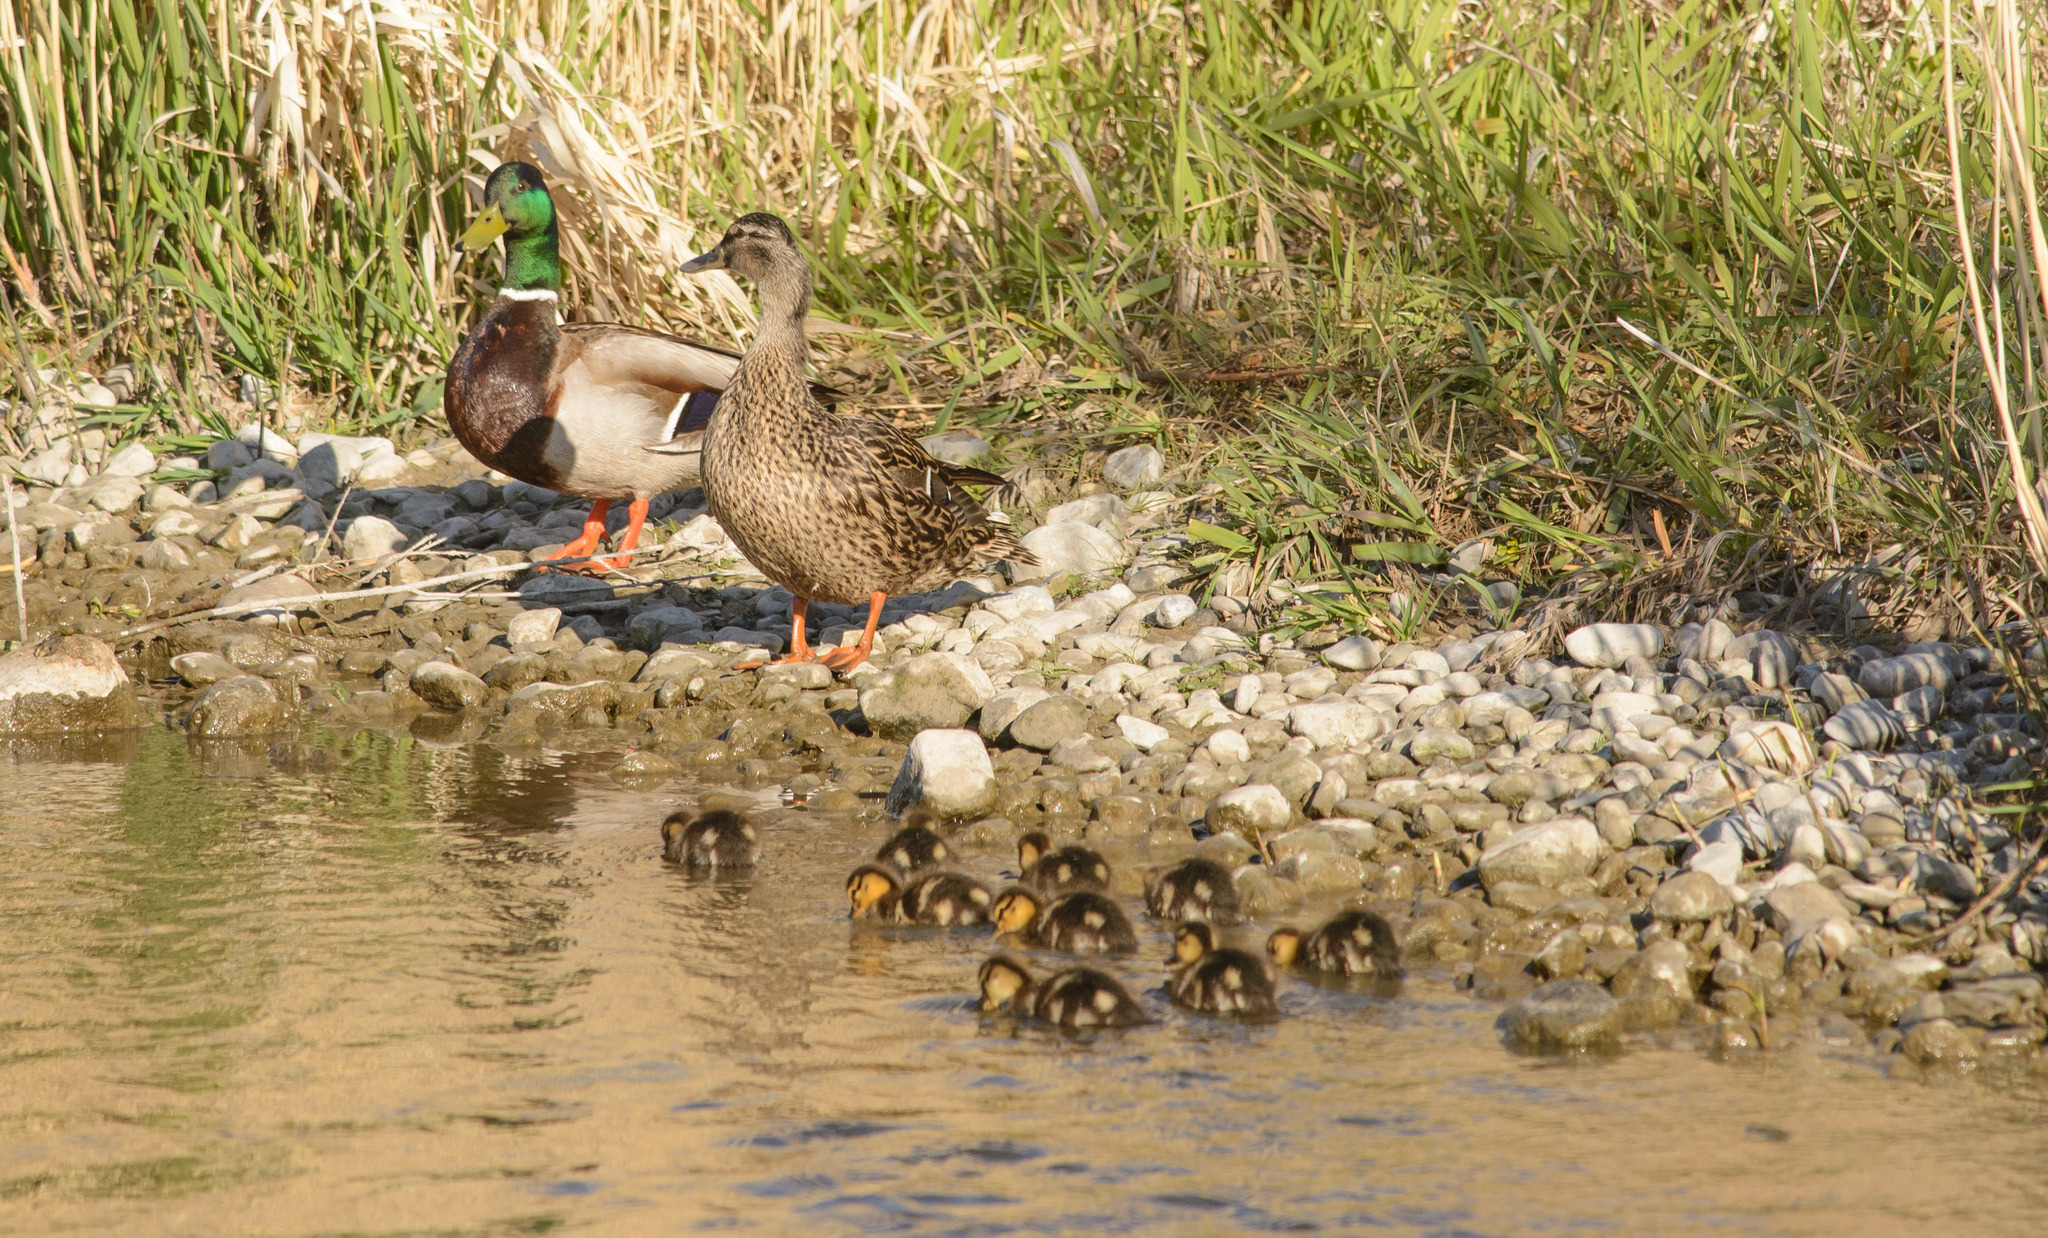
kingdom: Animalia
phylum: Chordata
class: Aves
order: Anseriformes
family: Anatidae
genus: Anas
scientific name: Anas platyrhynchos
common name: Mallard
